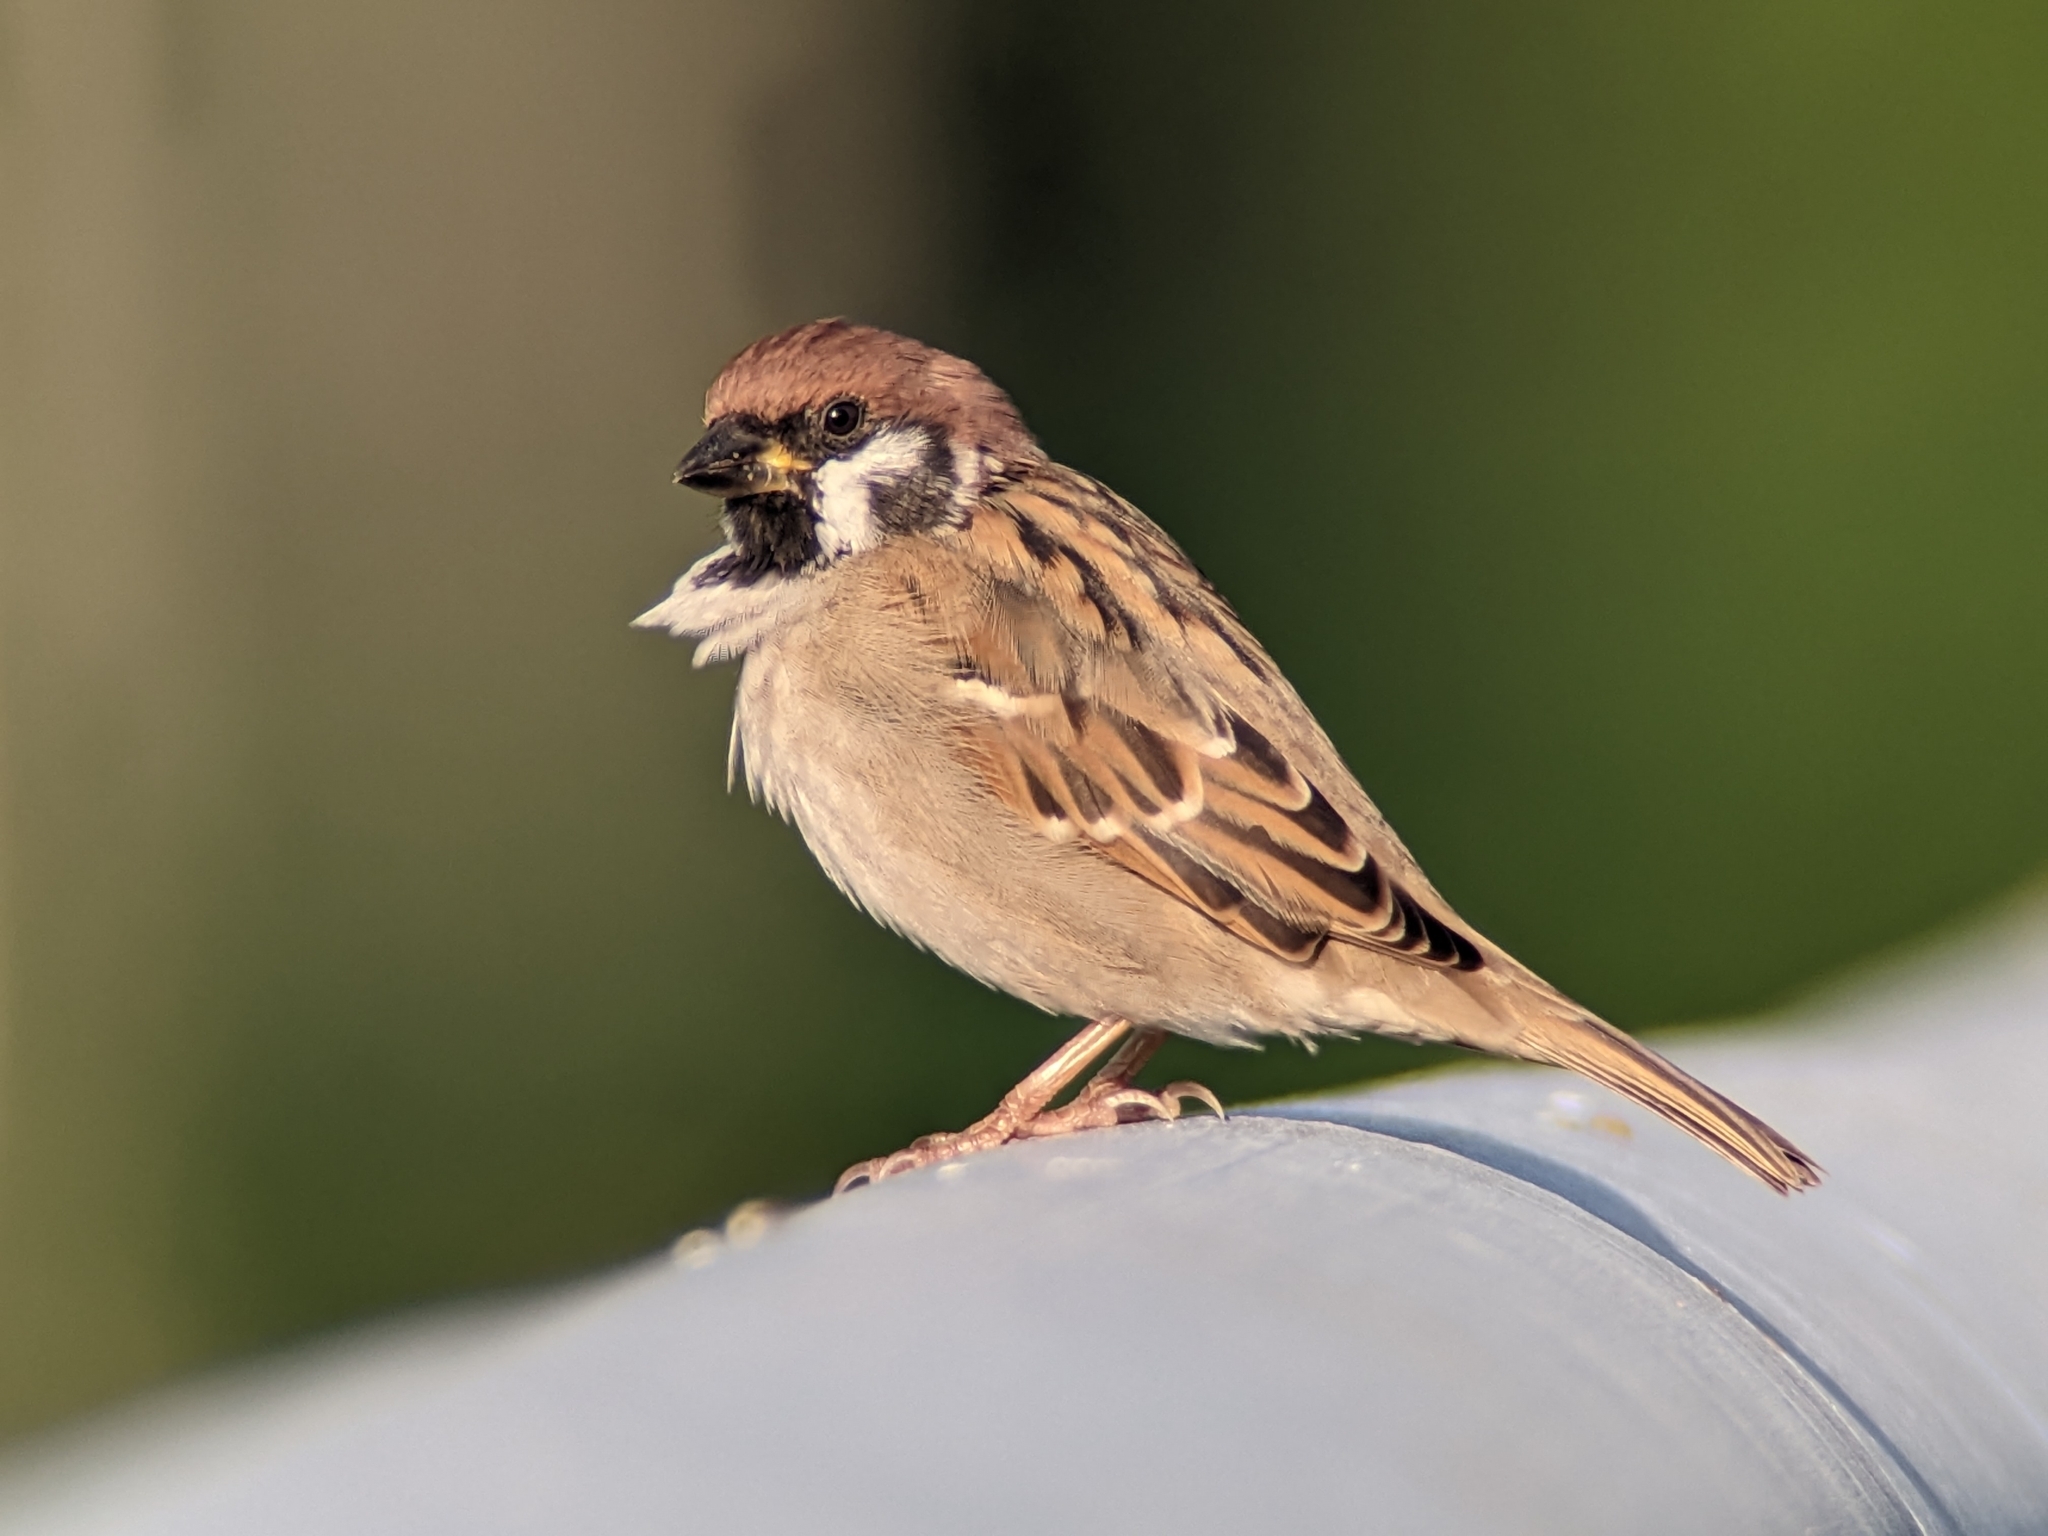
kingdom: Animalia
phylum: Chordata
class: Aves
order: Passeriformes
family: Passeridae
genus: Passer
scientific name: Passer montanus
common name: Eurasian tree sparrow
